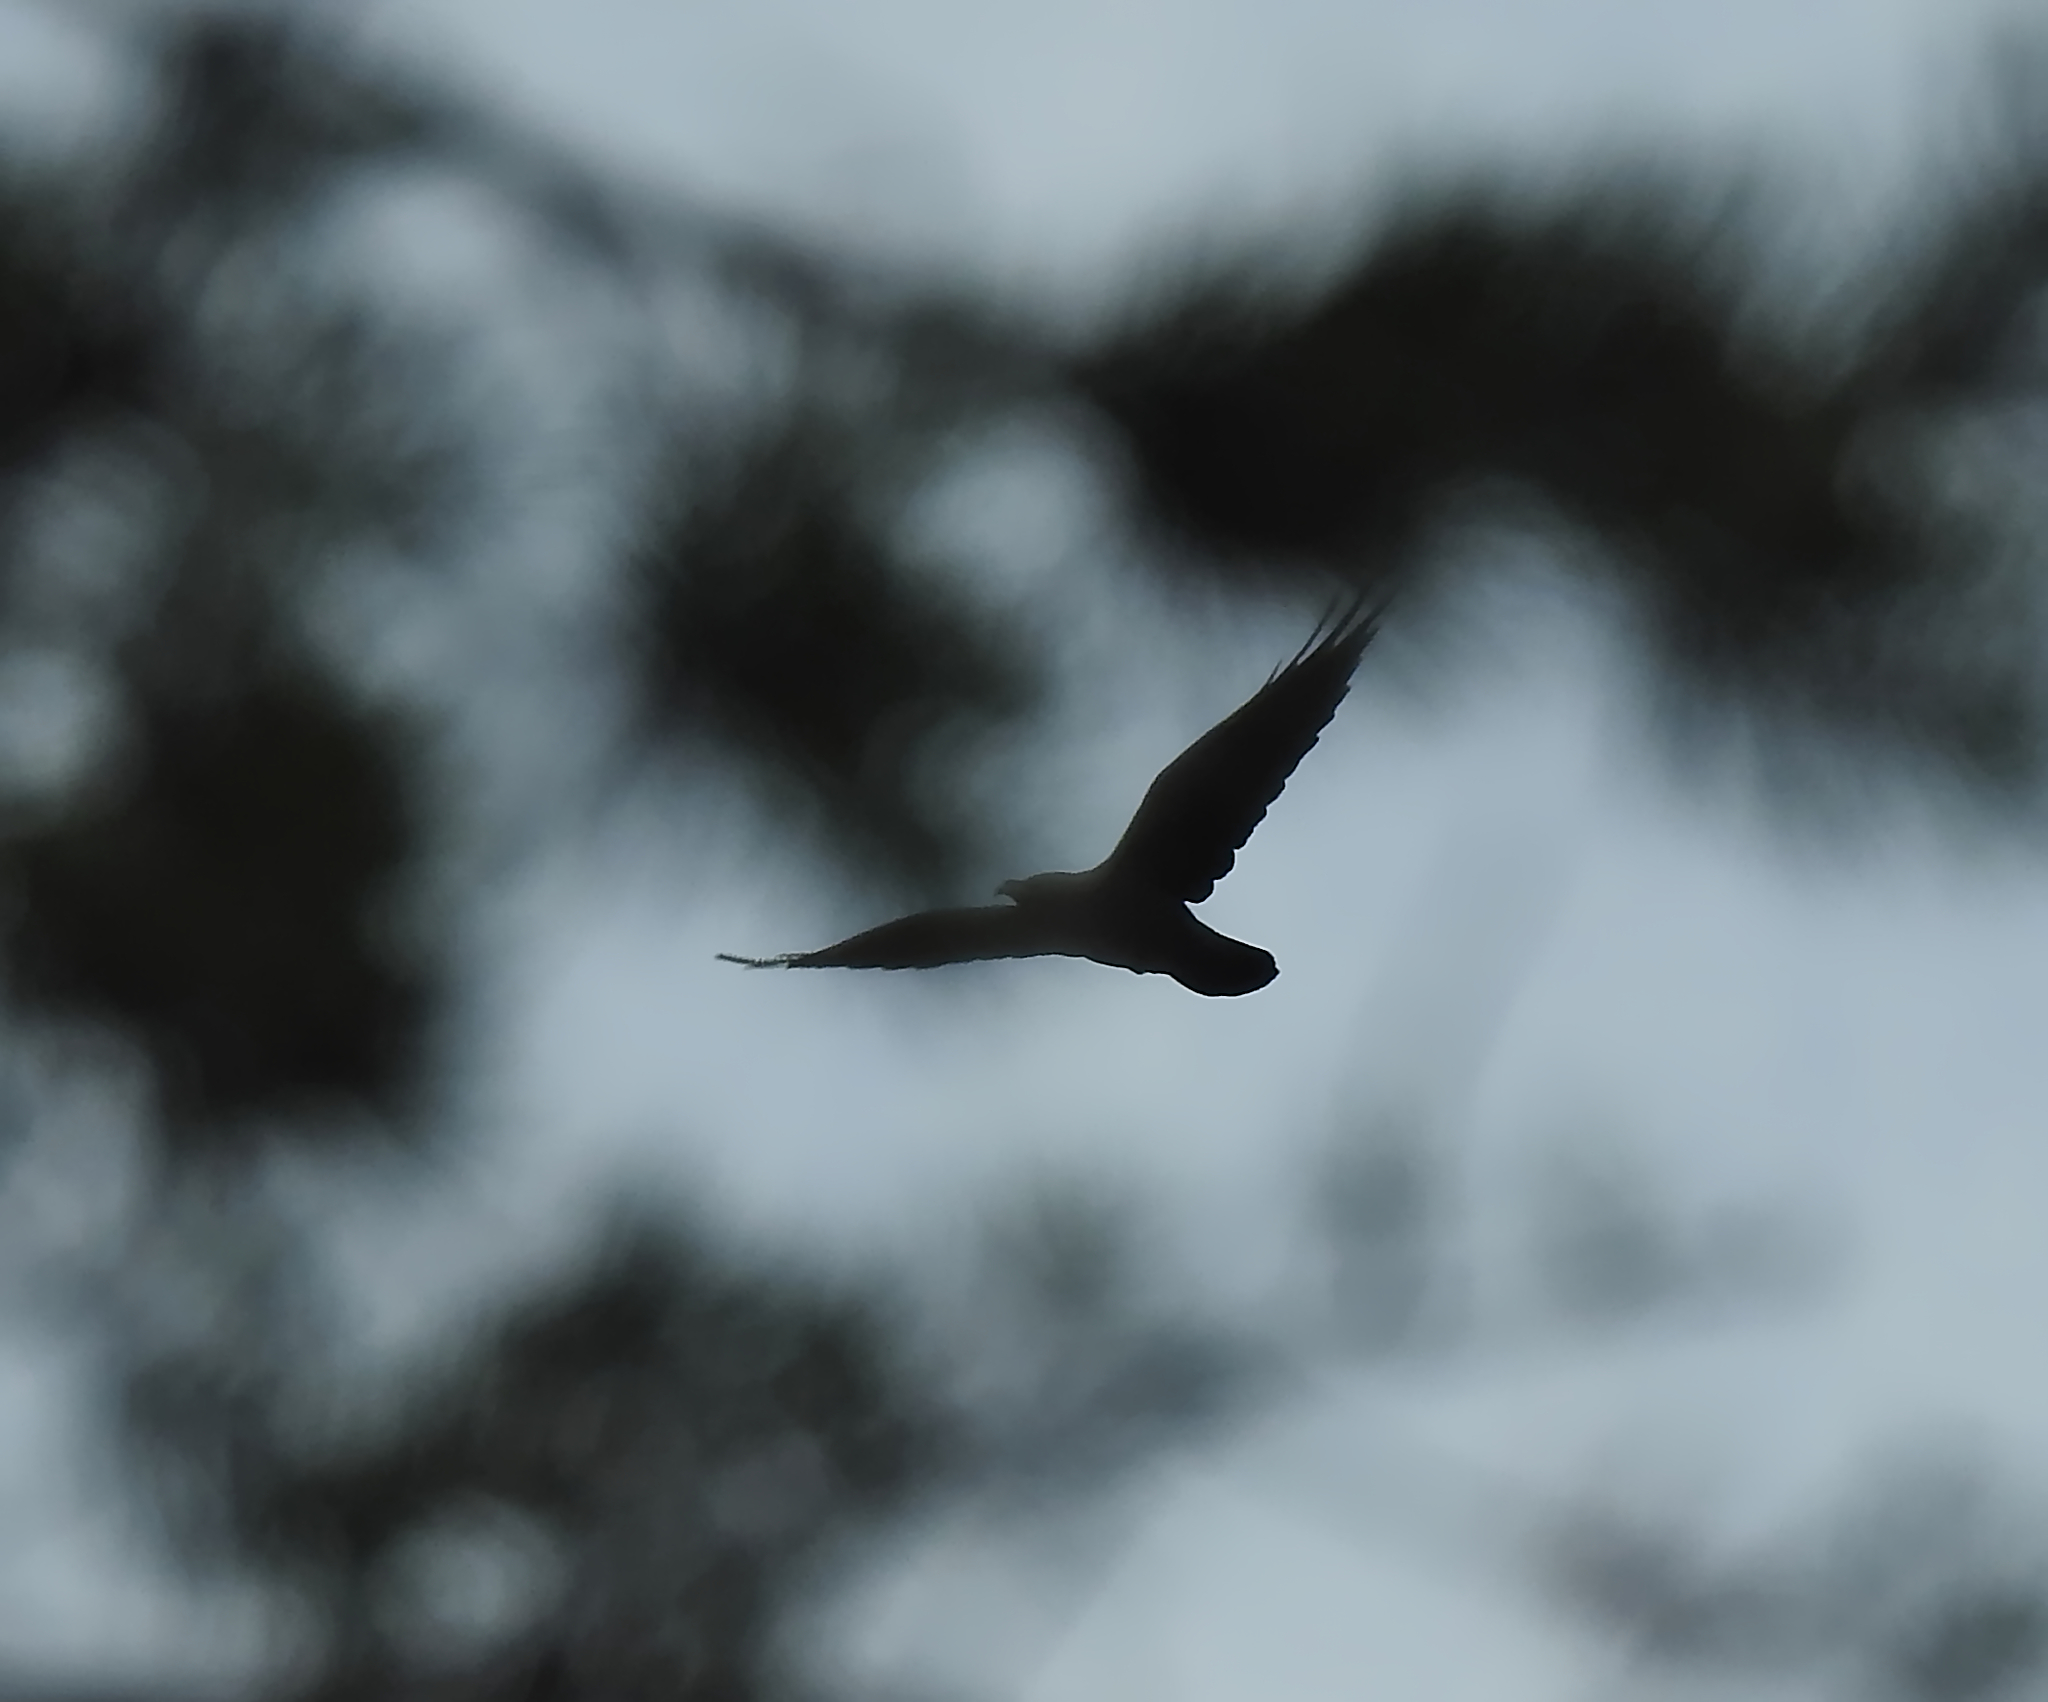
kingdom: Animalia
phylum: Chordata
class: Aves
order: Passeriformes
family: Corvidae
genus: Corvus
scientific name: Corvus corax
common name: Common raven
